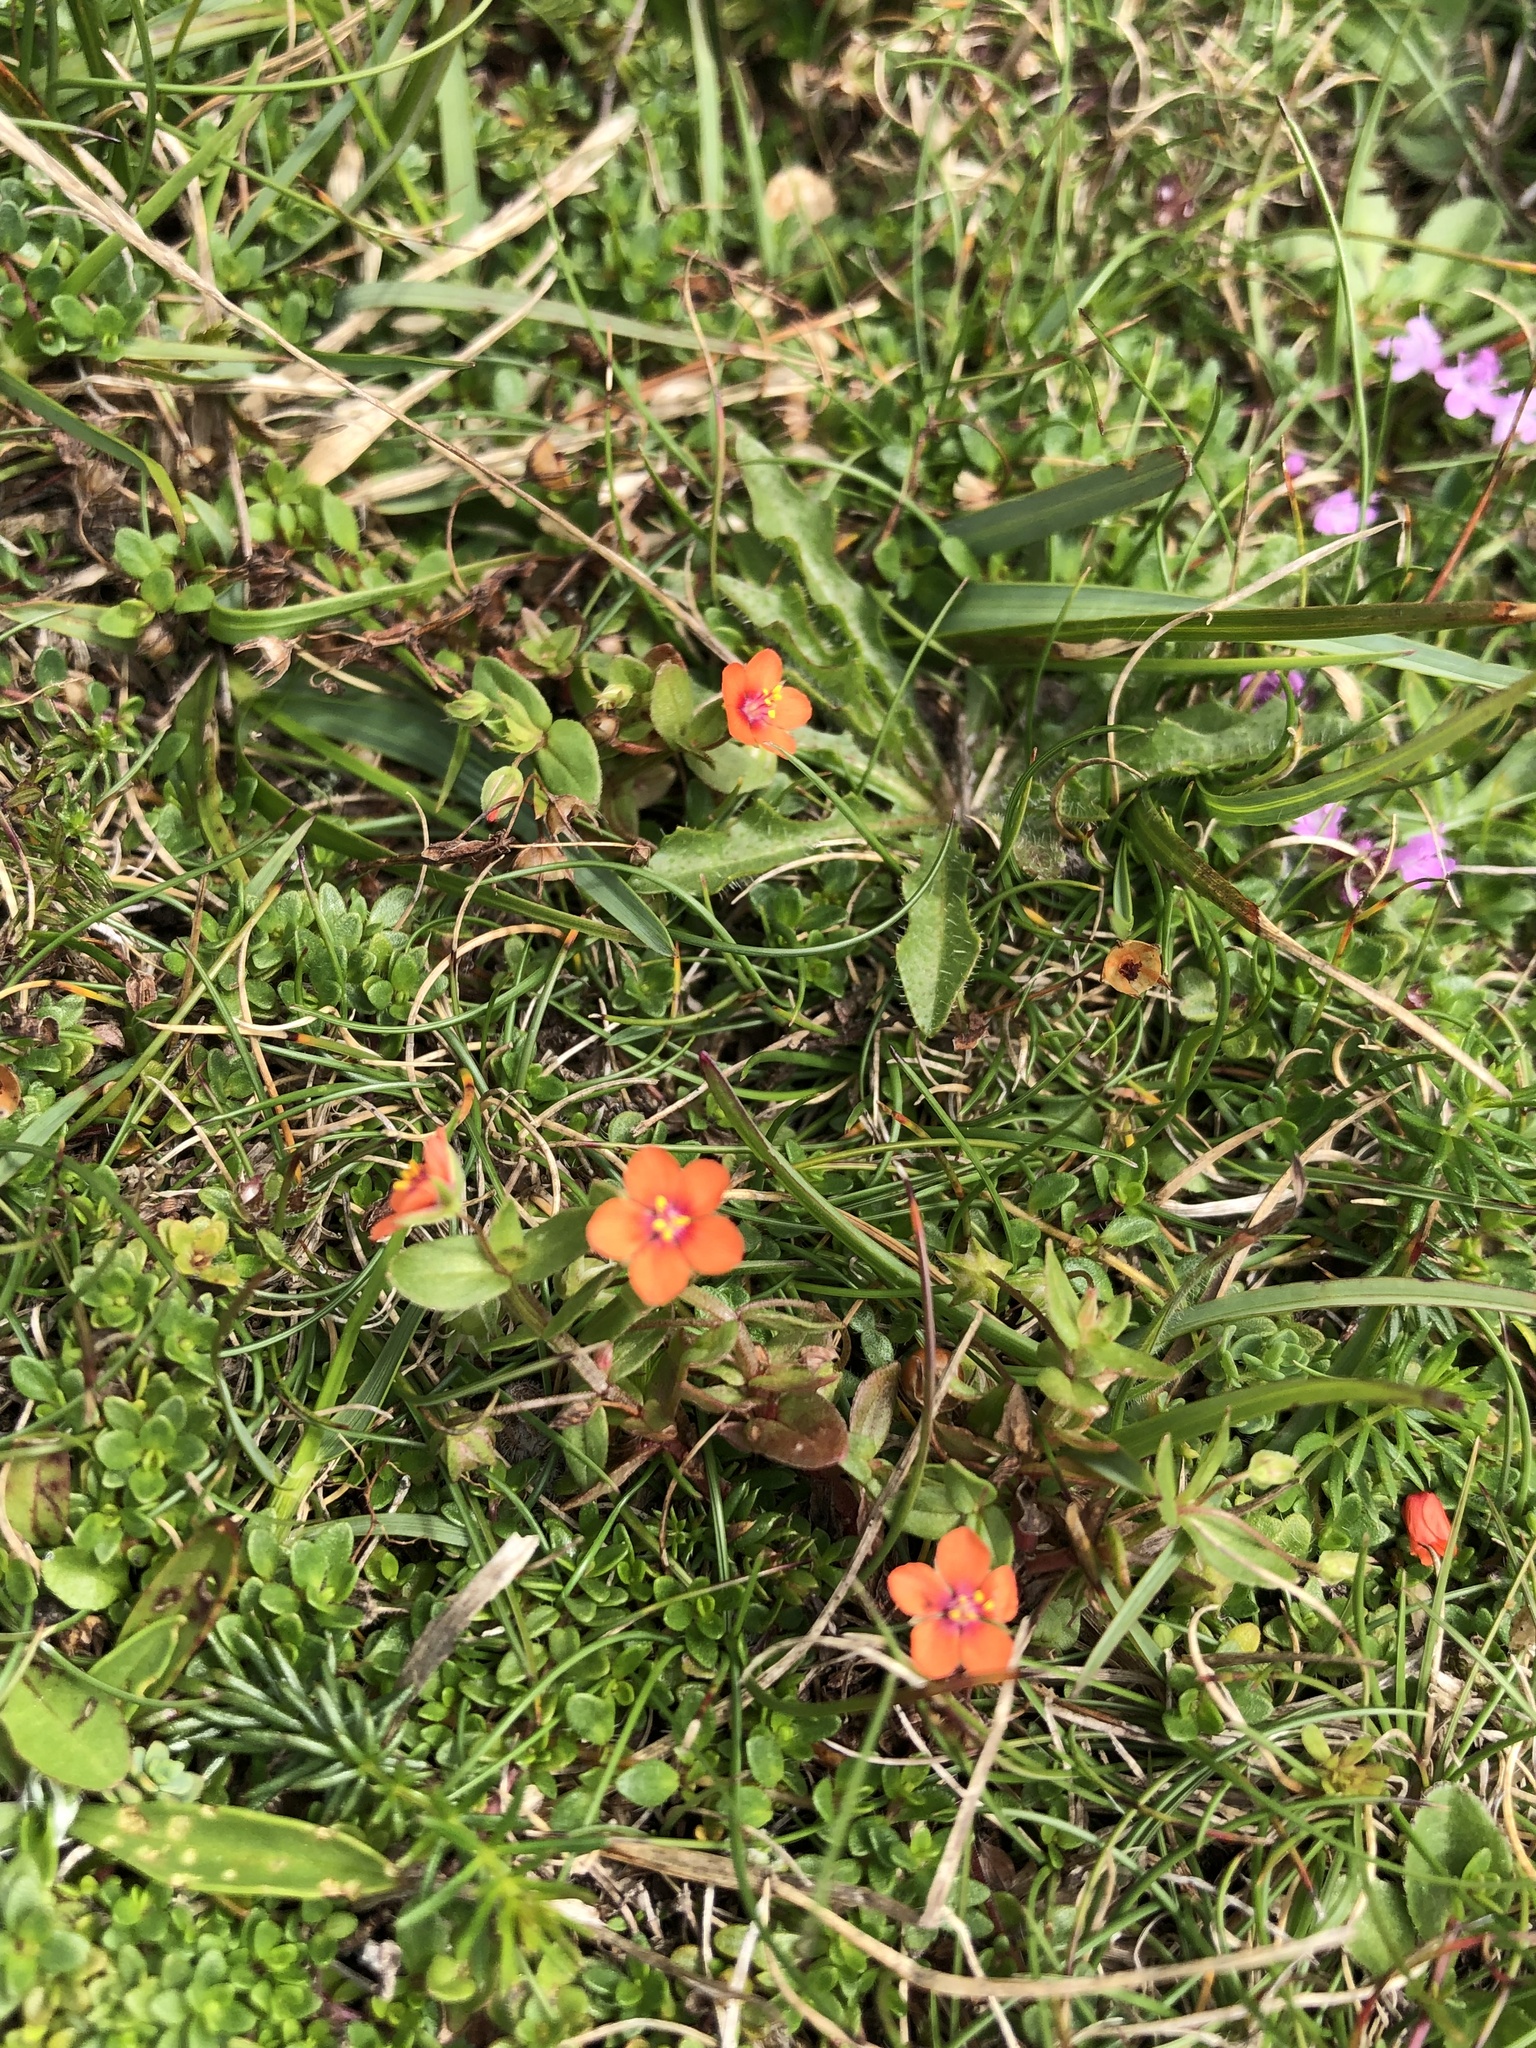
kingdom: Plantae
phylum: Tracheophyta
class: Magnoliopsida
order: Ericales
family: Primulaceae
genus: Lysimachia
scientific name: Lysimachia arvensis
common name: Scarlet pimpernel
